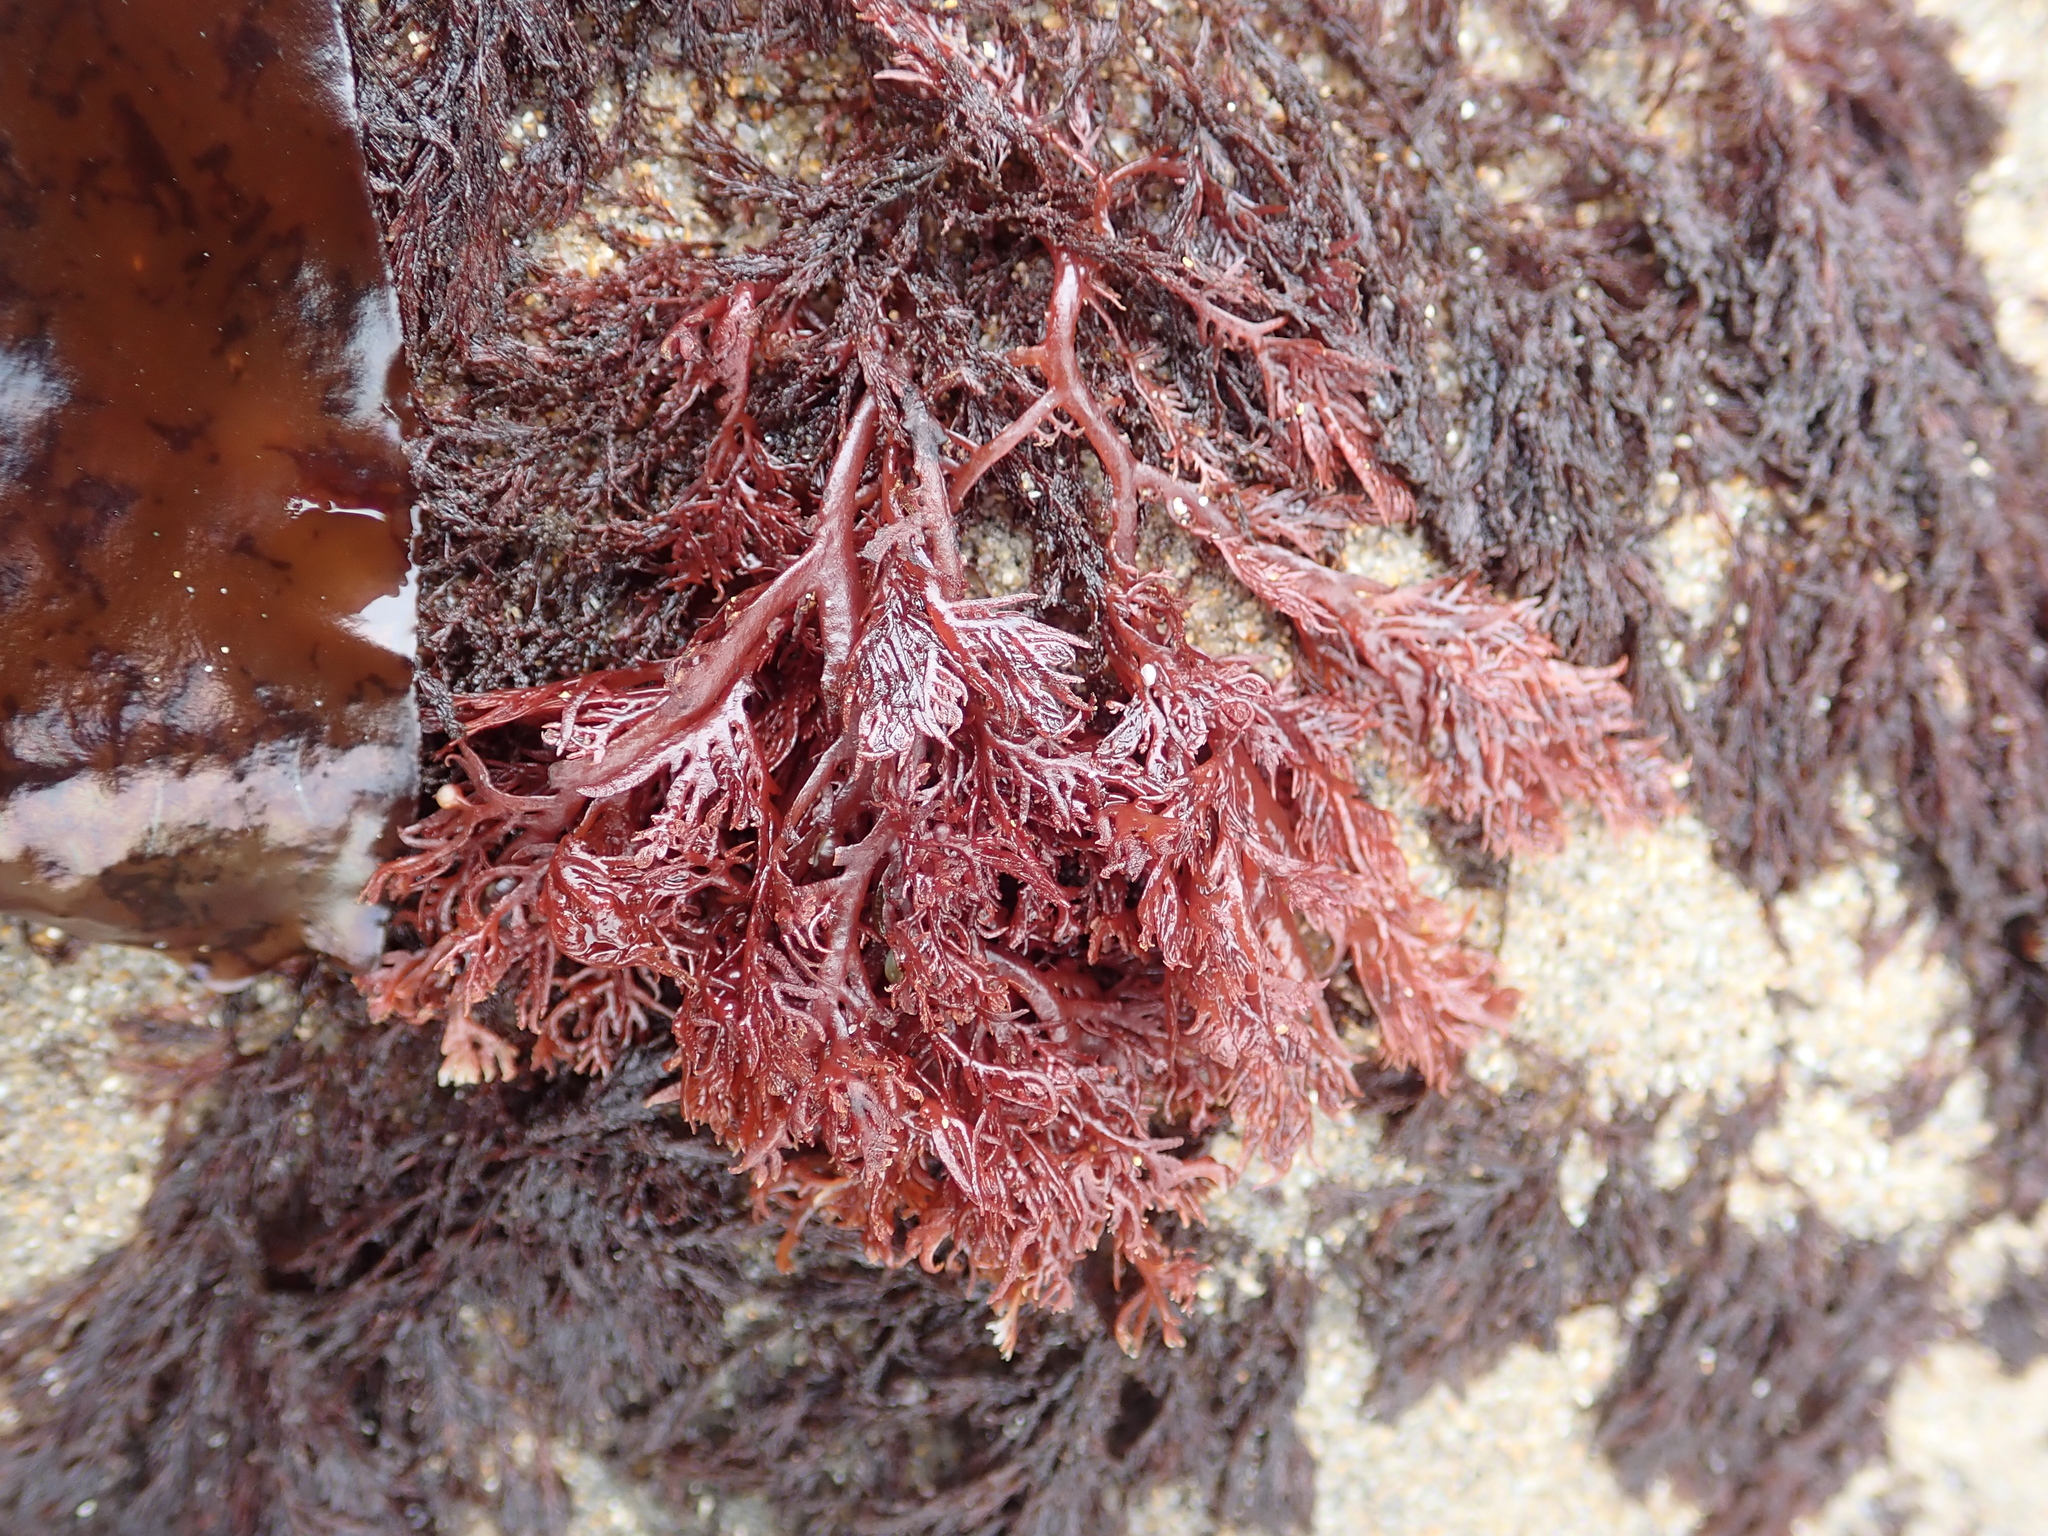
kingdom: Plantae
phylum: Rhodophyta
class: Florideophyceae
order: Plocamiales
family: Plocamiaceae
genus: Plocamium
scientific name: Plocamium cartilagineum
